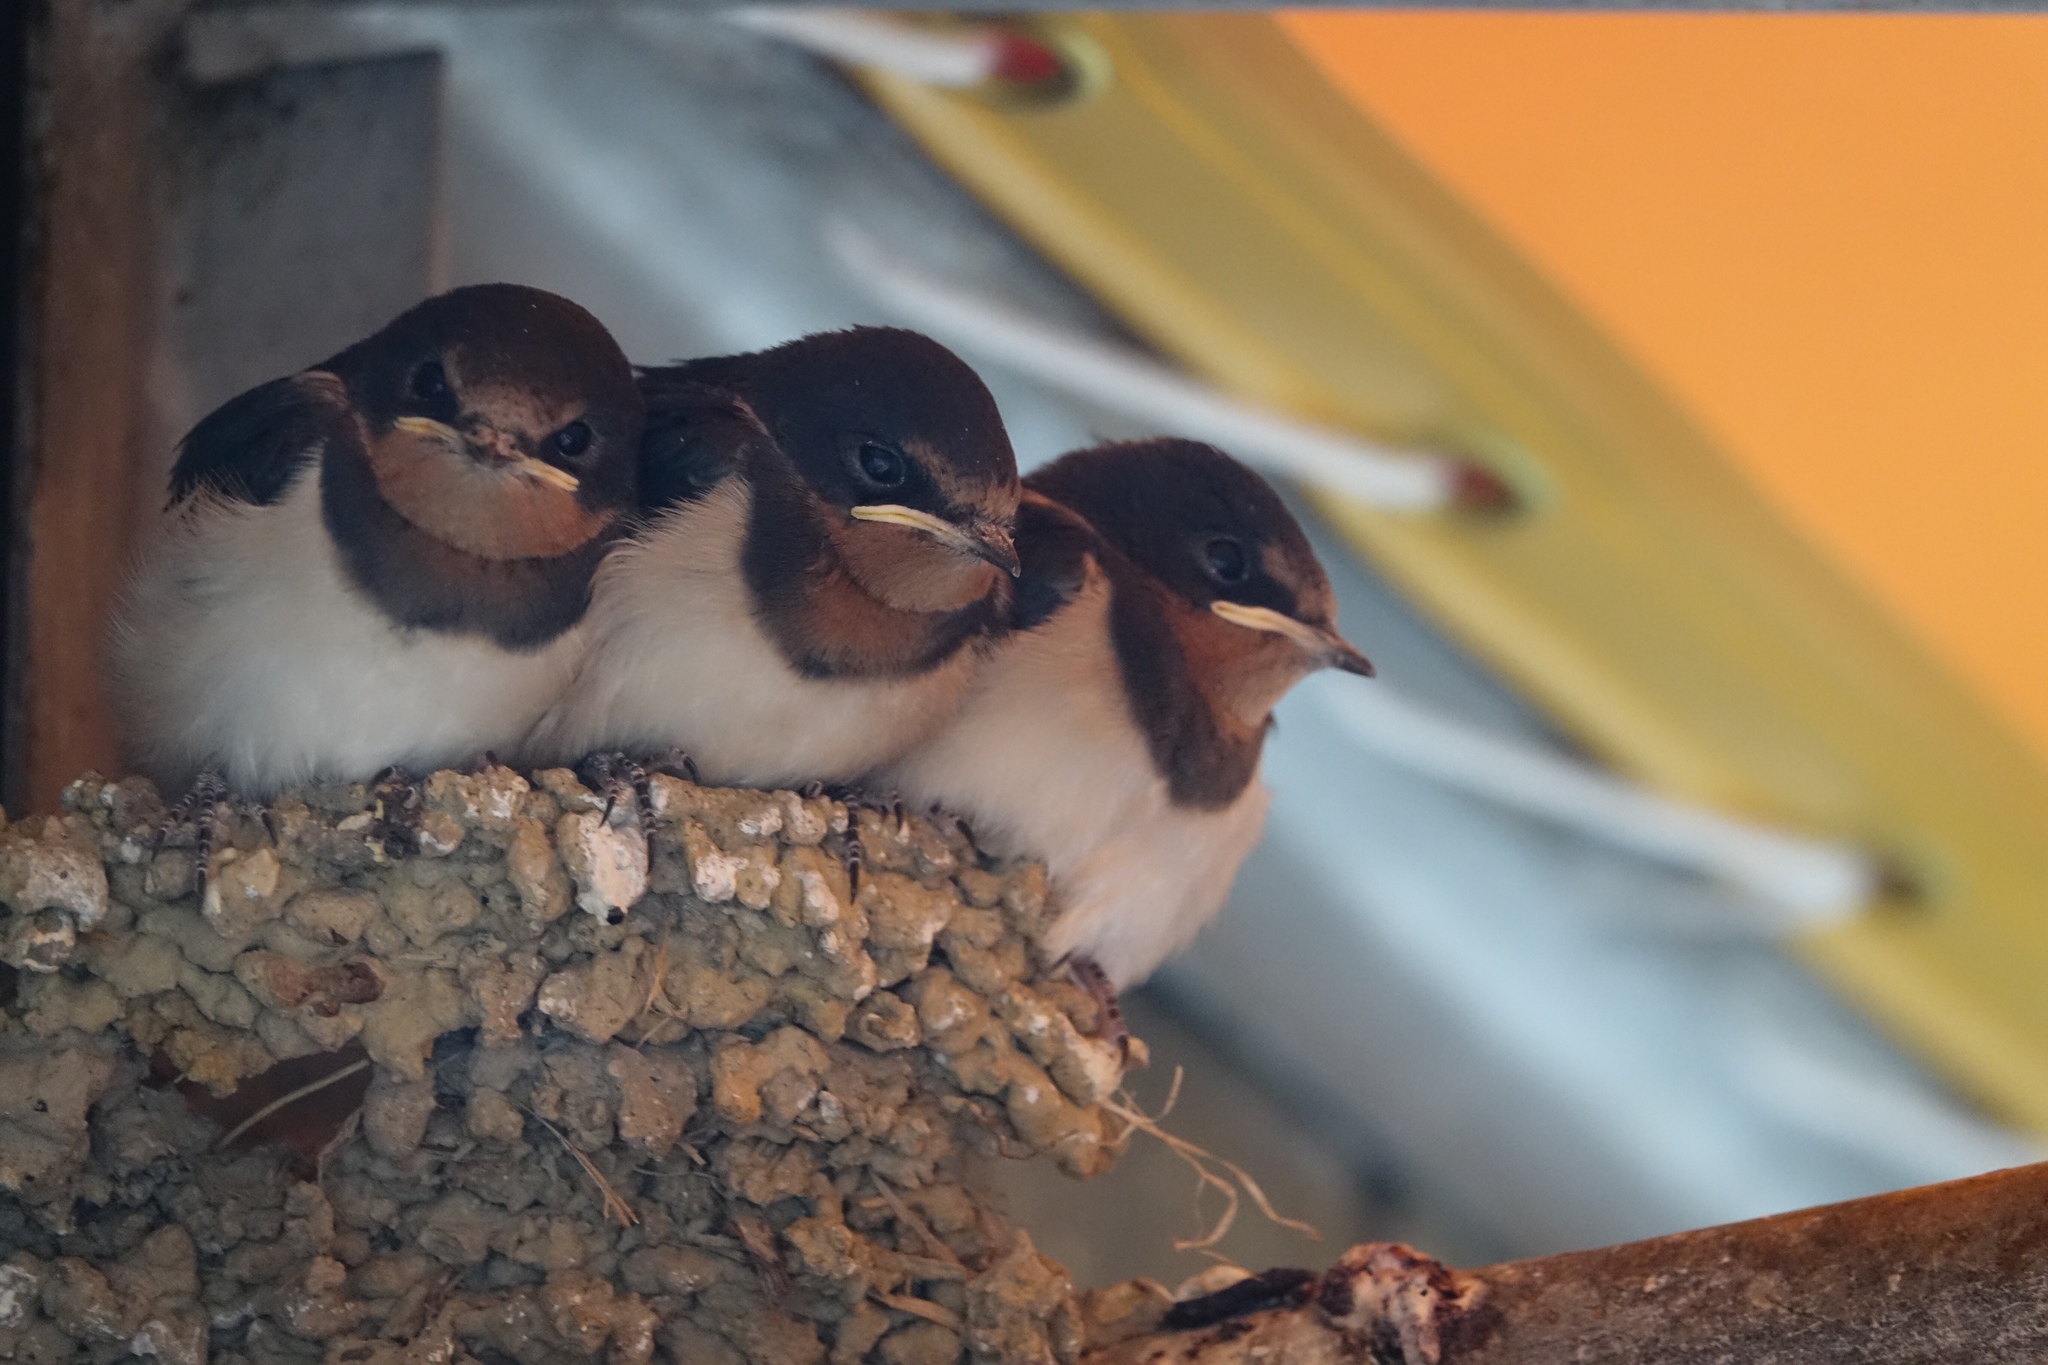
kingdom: Animalia
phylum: Chordata
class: Aves
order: Passeriformes
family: Hirundinidae
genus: Hirundo
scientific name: Hirundo rustica
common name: Barn swallow
